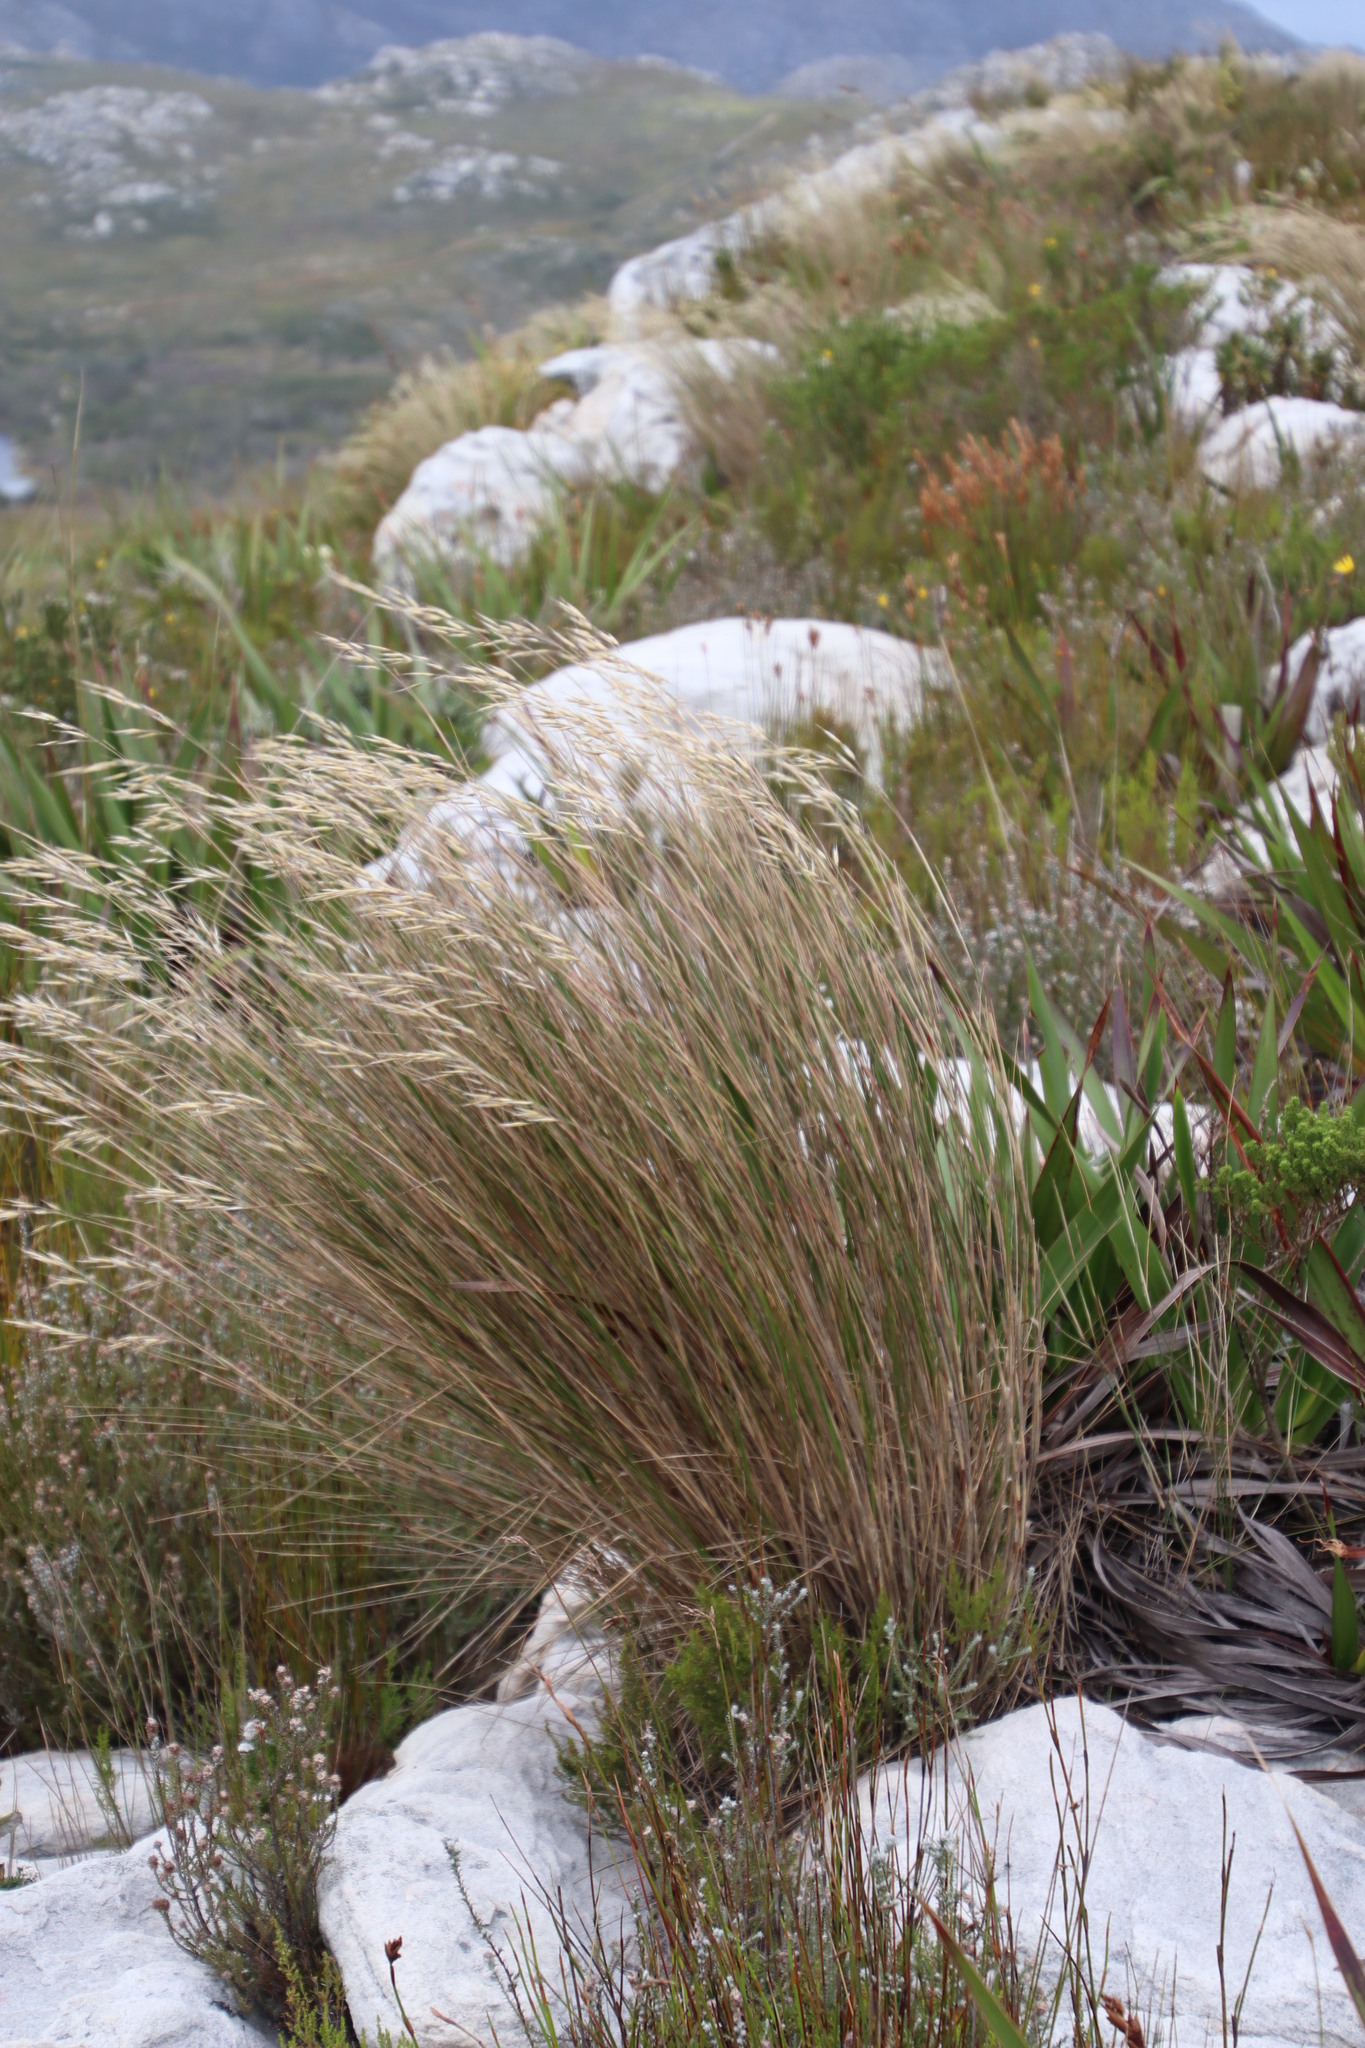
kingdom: Plantae
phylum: Tracheophyta
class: Liliopsida
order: Poales
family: Poaceae
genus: Pentameris
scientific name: Pentameris macrocalycina
